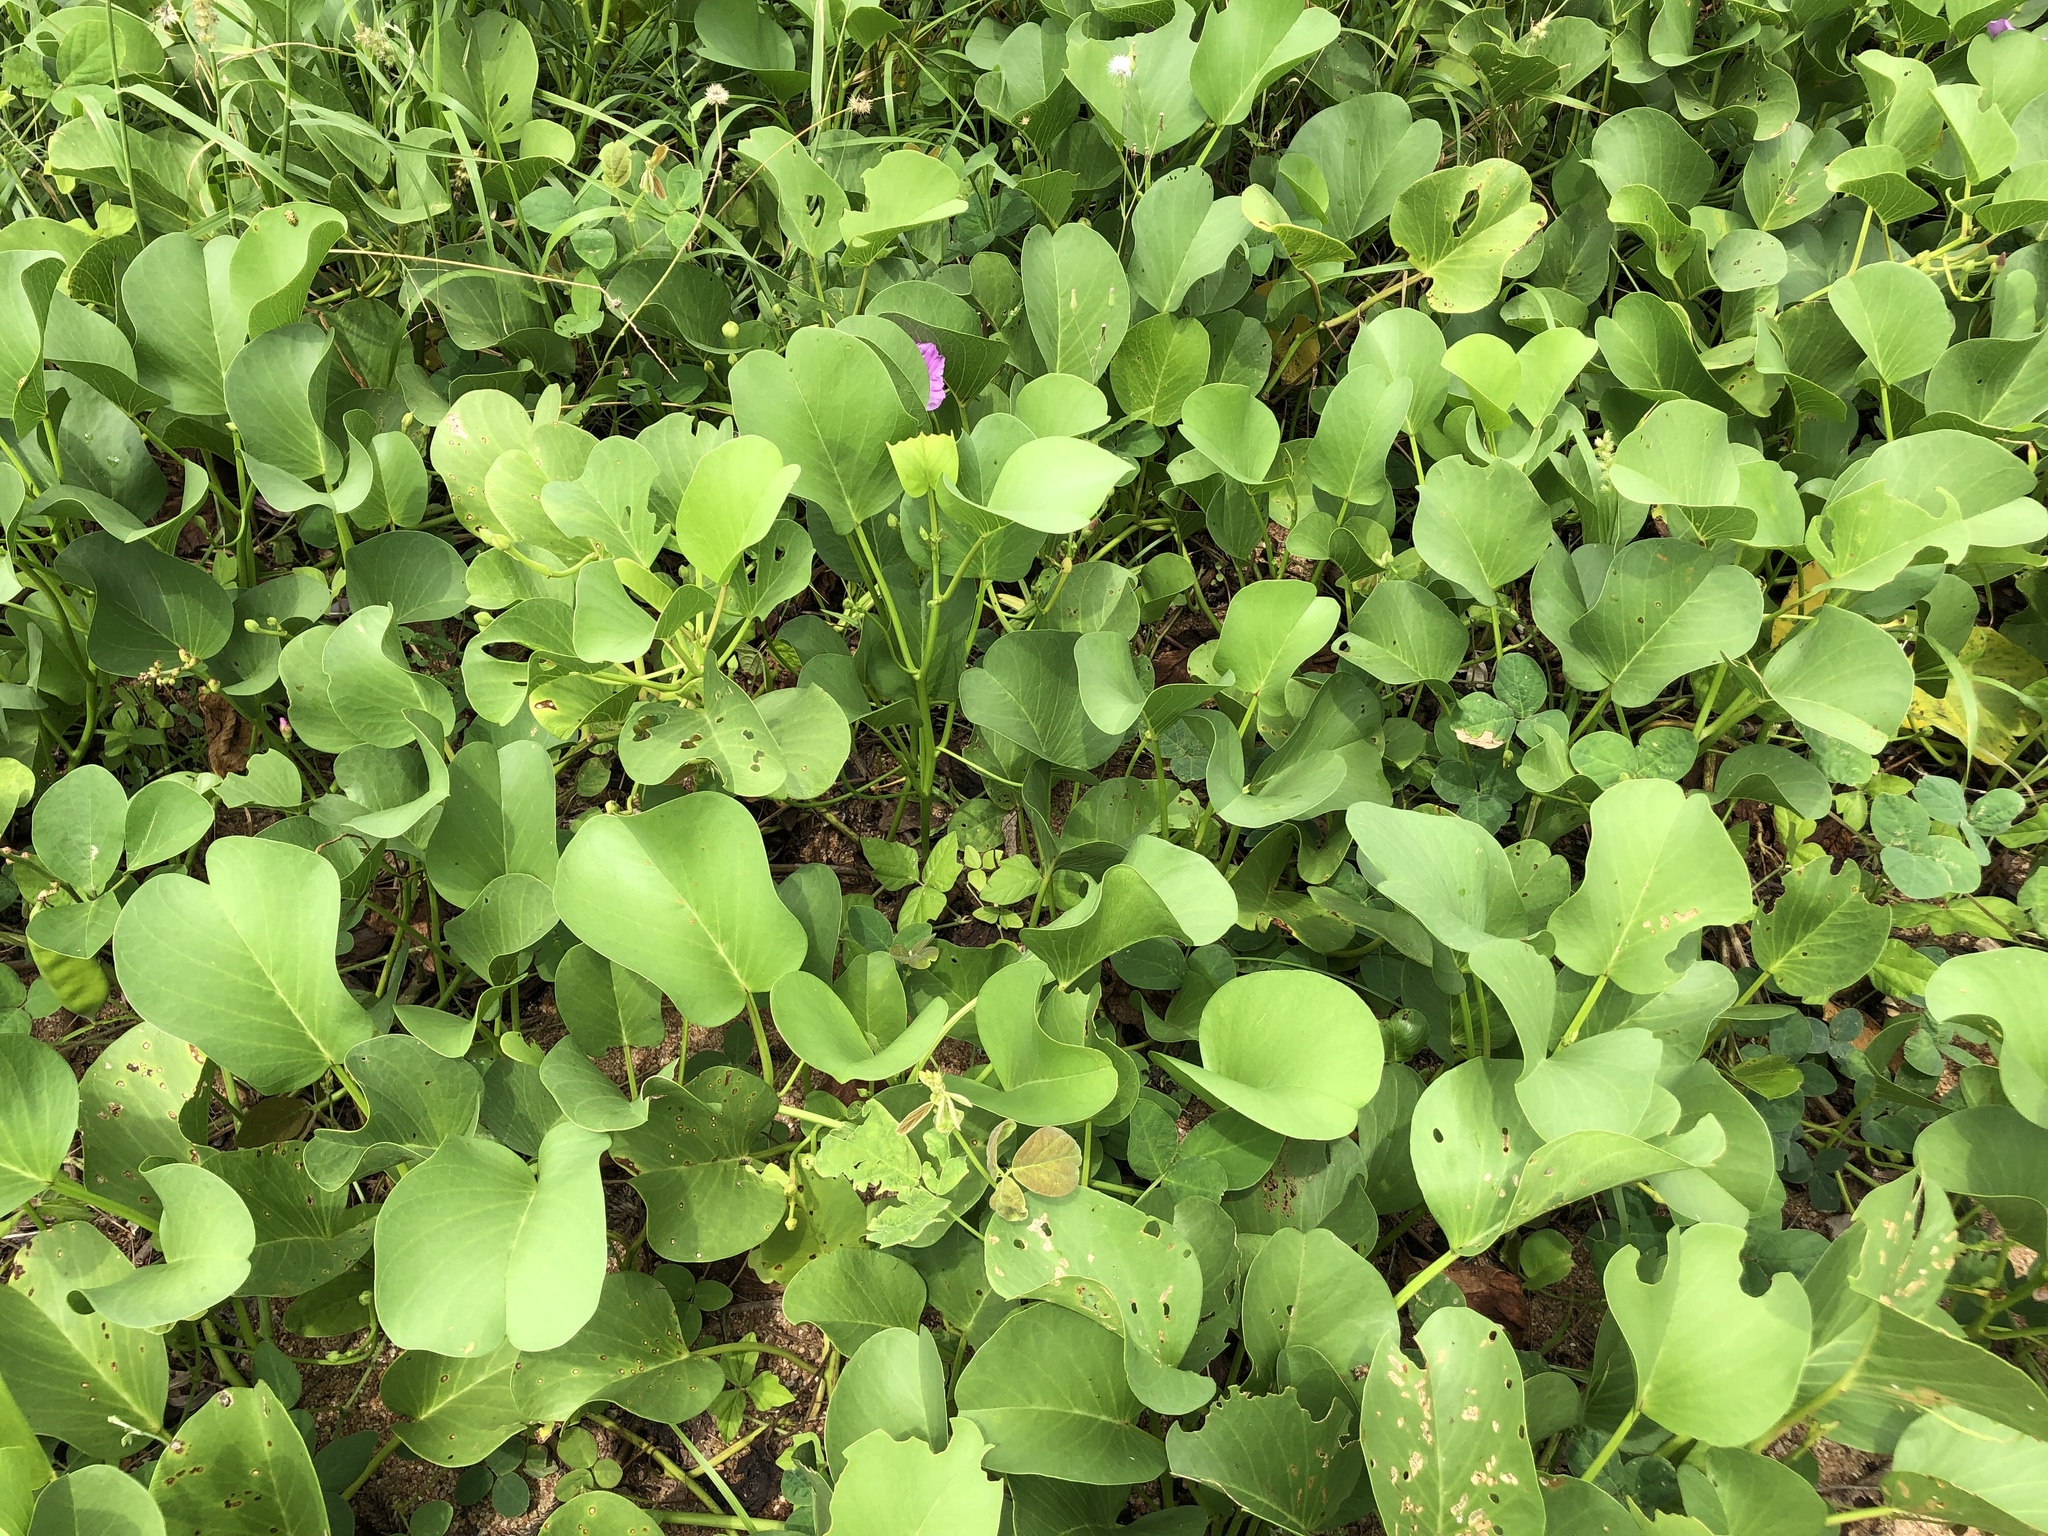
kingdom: Plantae
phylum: Tracheophyta
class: Magnoliopsida
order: Solanales
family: Convolvulaceae
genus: Ipomoea
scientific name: Ipomoea pes-caprae
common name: Beach morning glory
